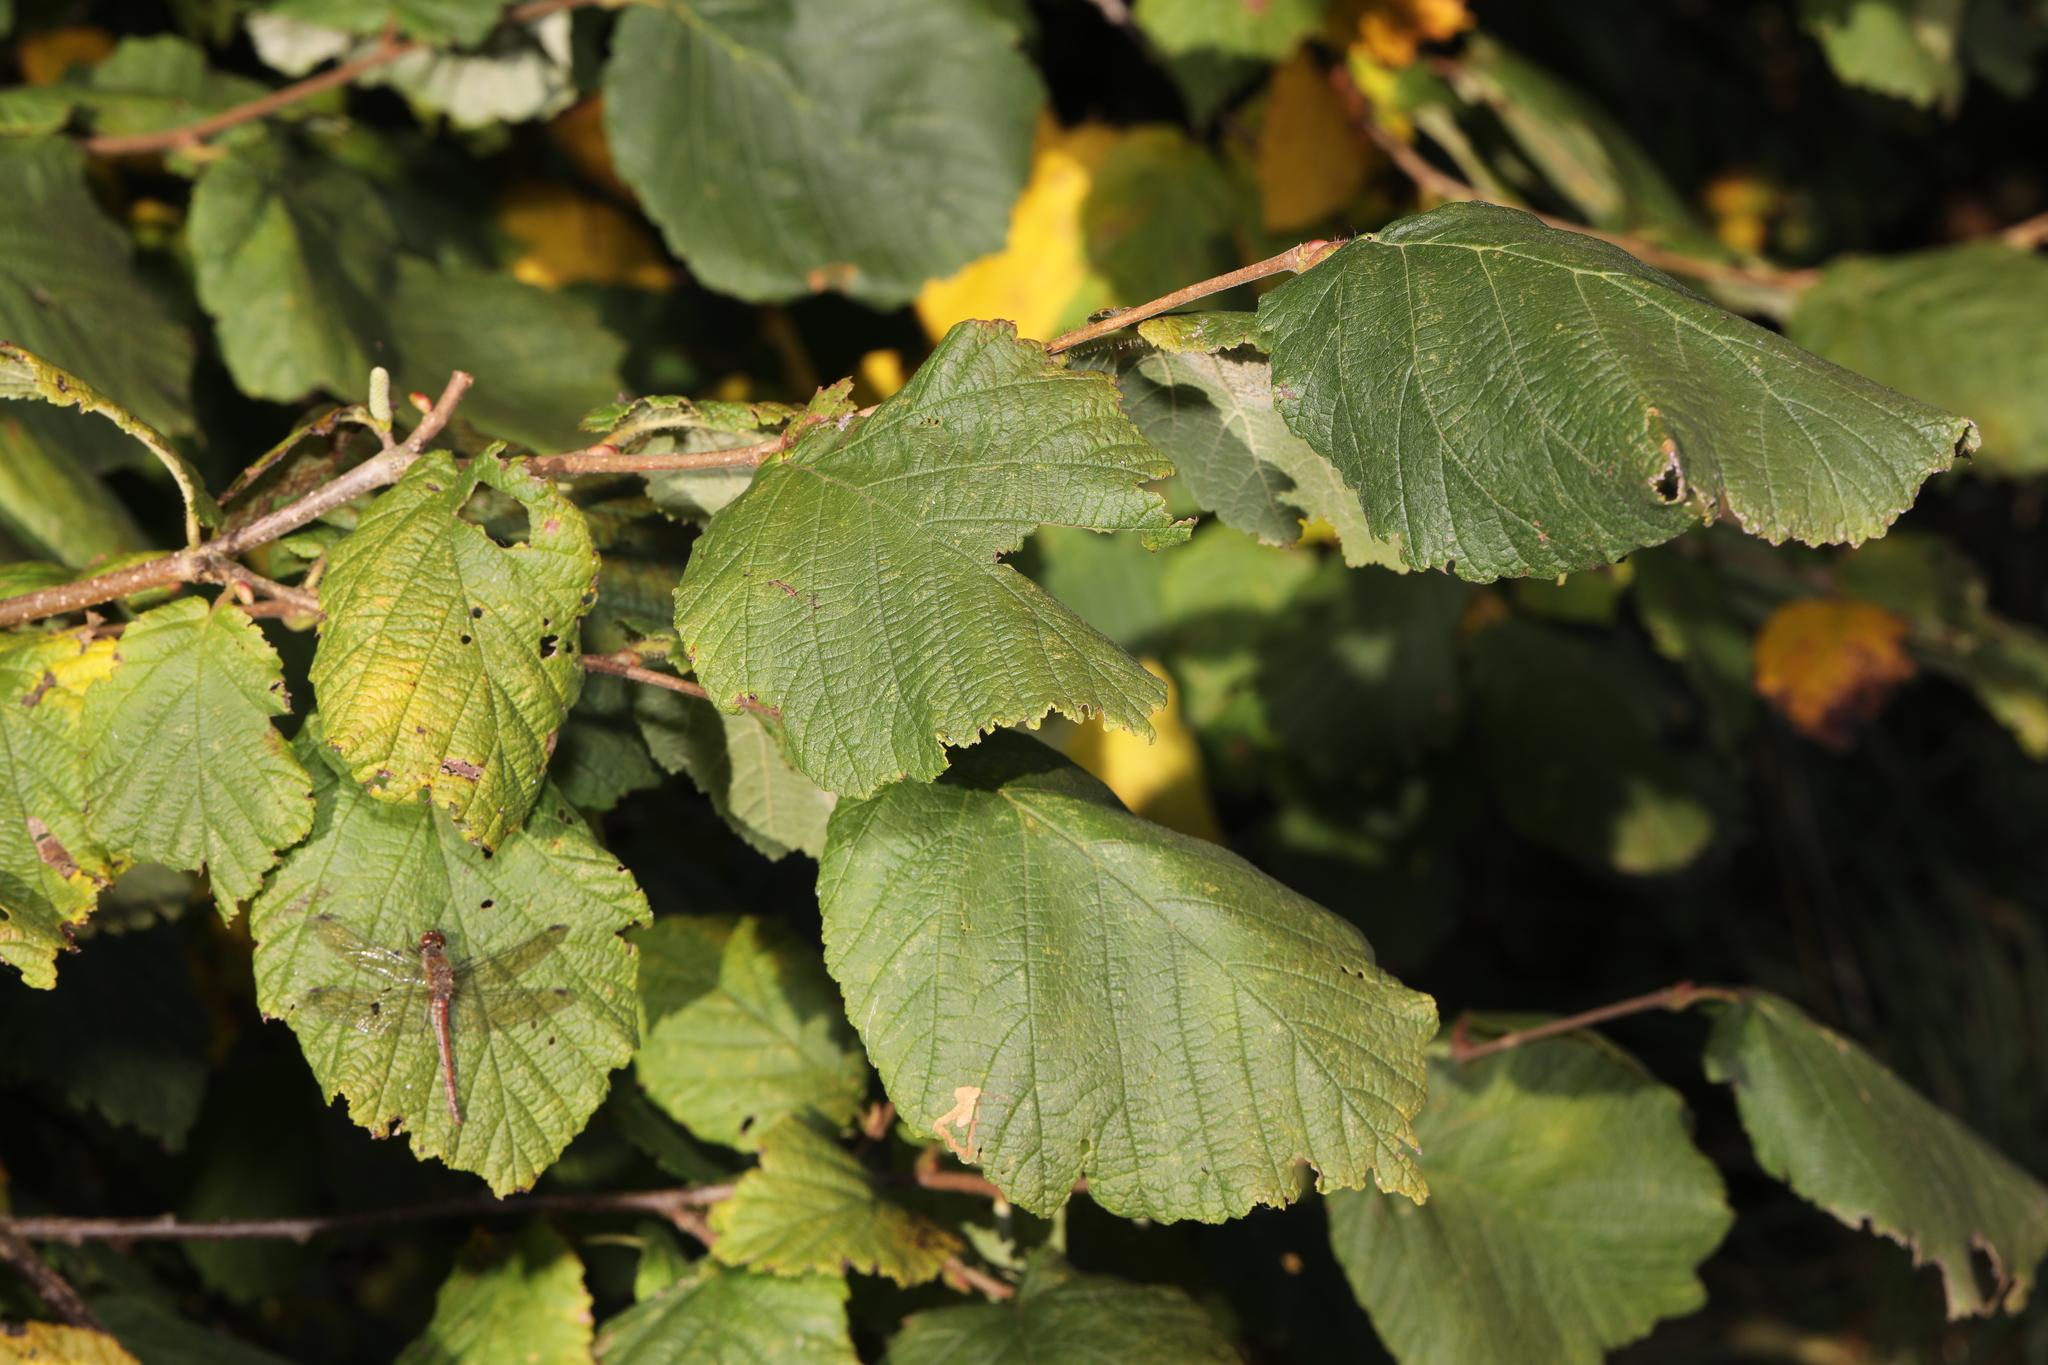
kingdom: Plantae
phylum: Tracheophyta
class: Magnoliopsida
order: Fagales
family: Betulaceae
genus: Corylus
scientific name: Corylus avellana
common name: European hazel
